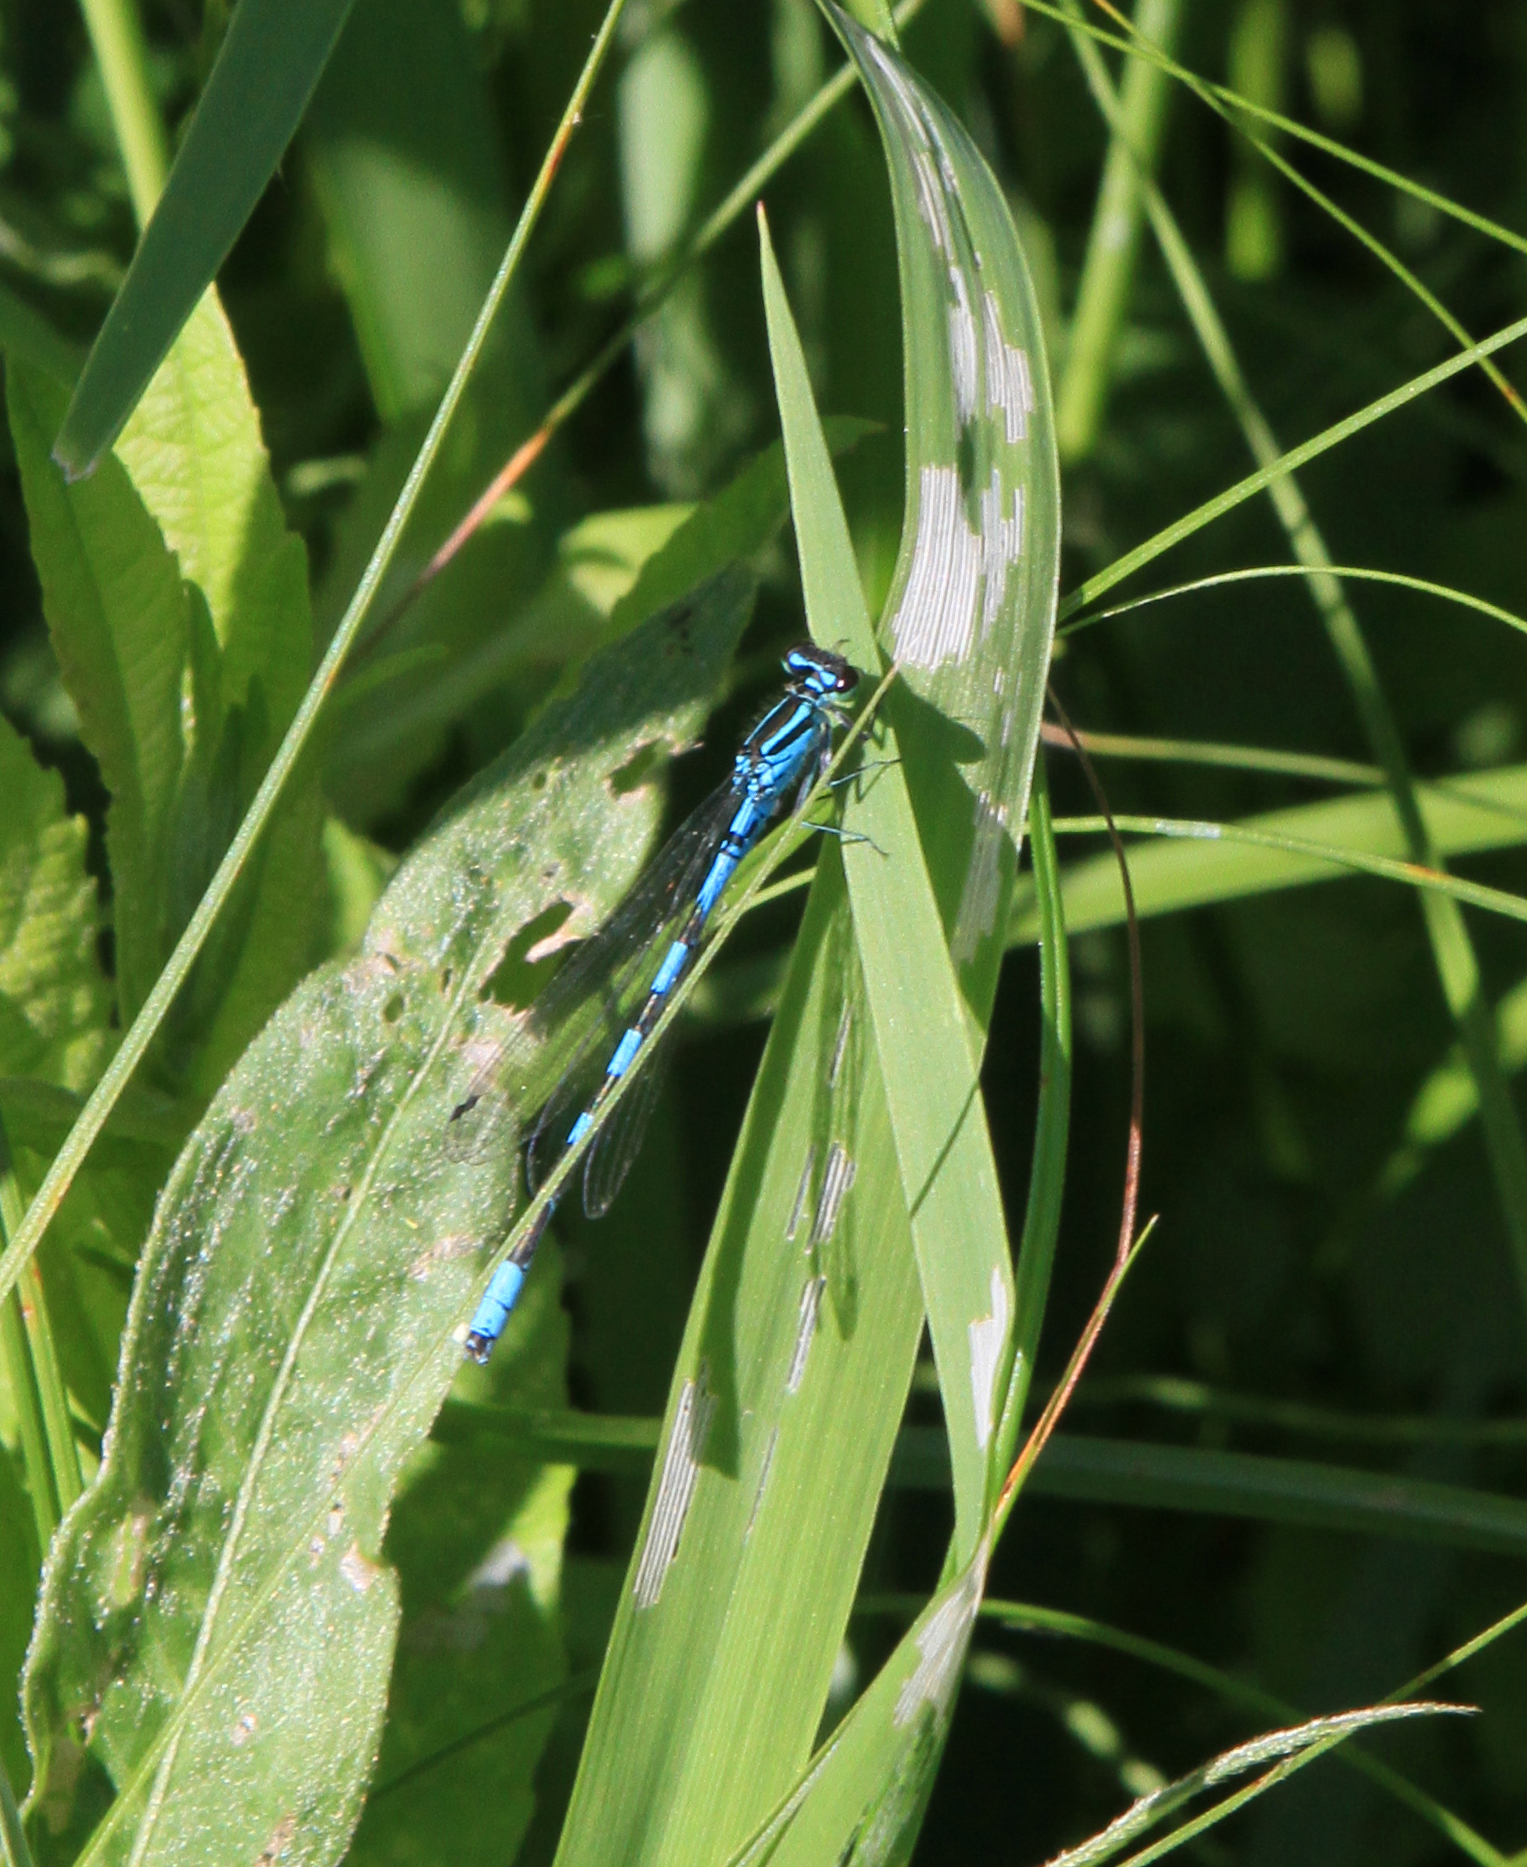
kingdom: Animalia
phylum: Arthropoda
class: Insecta
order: Odonata
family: Coenagrionidae
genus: Coenagrion
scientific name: Coenagrion hastulatum
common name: Spearhead bluet
